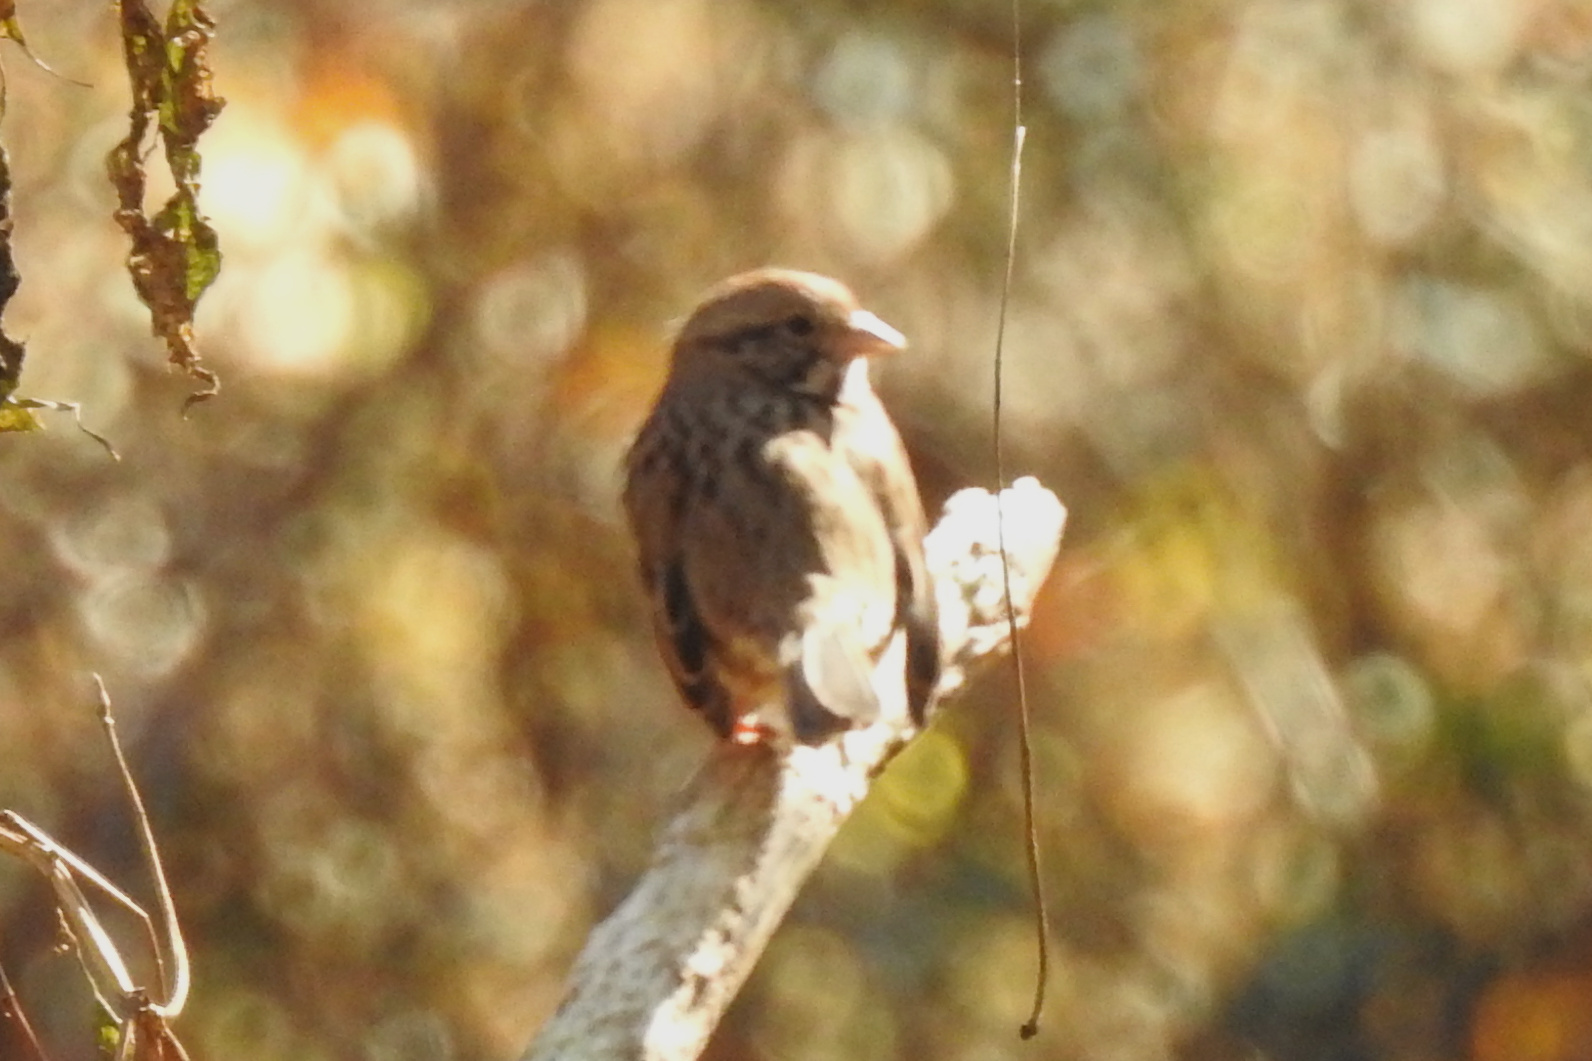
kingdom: Animalia
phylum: Chordata
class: Aves
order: Passeriformes
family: Passerellidae
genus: Melospiza
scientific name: Melospiza melodia
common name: Song sparrow
